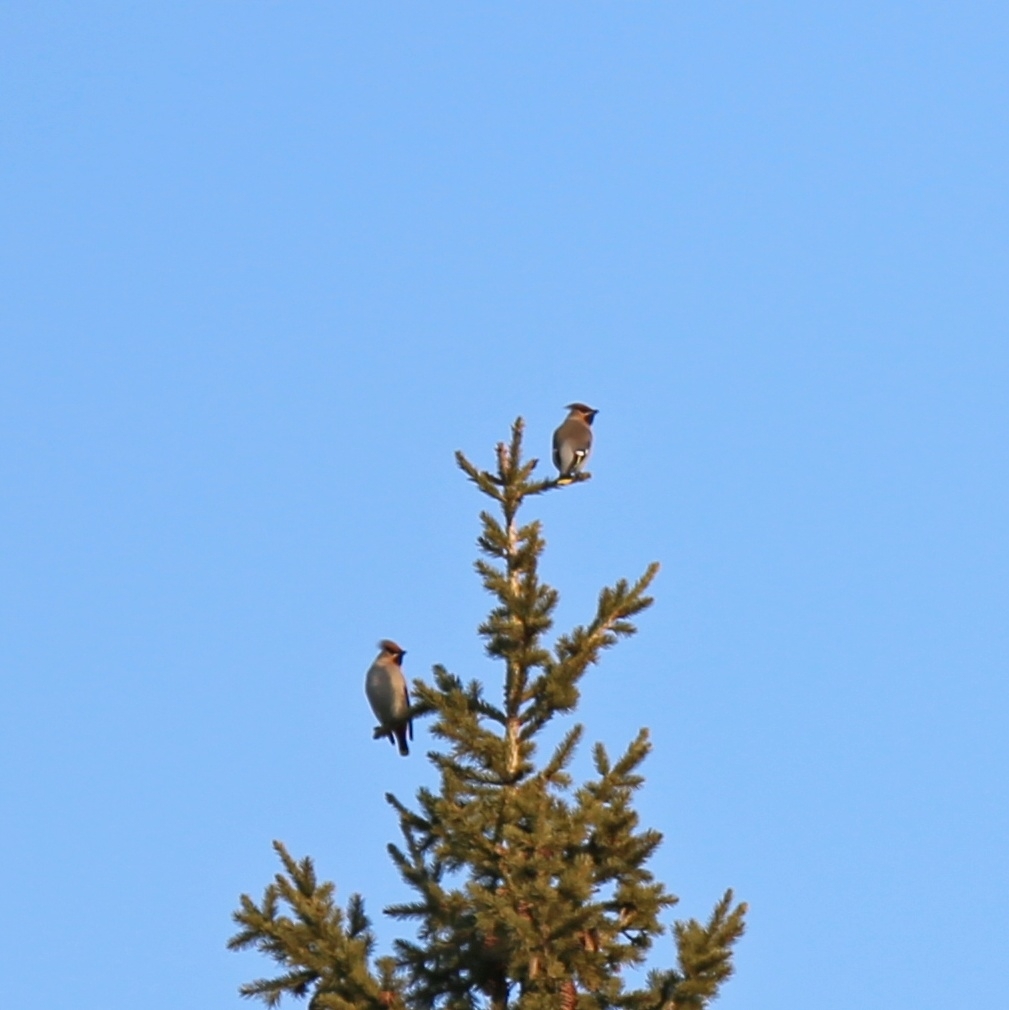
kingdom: Animalia
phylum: Chordata
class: Aves
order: Passeriformes
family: Bombycillidae
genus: Bombycilla
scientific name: Bombycilla garrulus
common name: Bohemian waxwing
